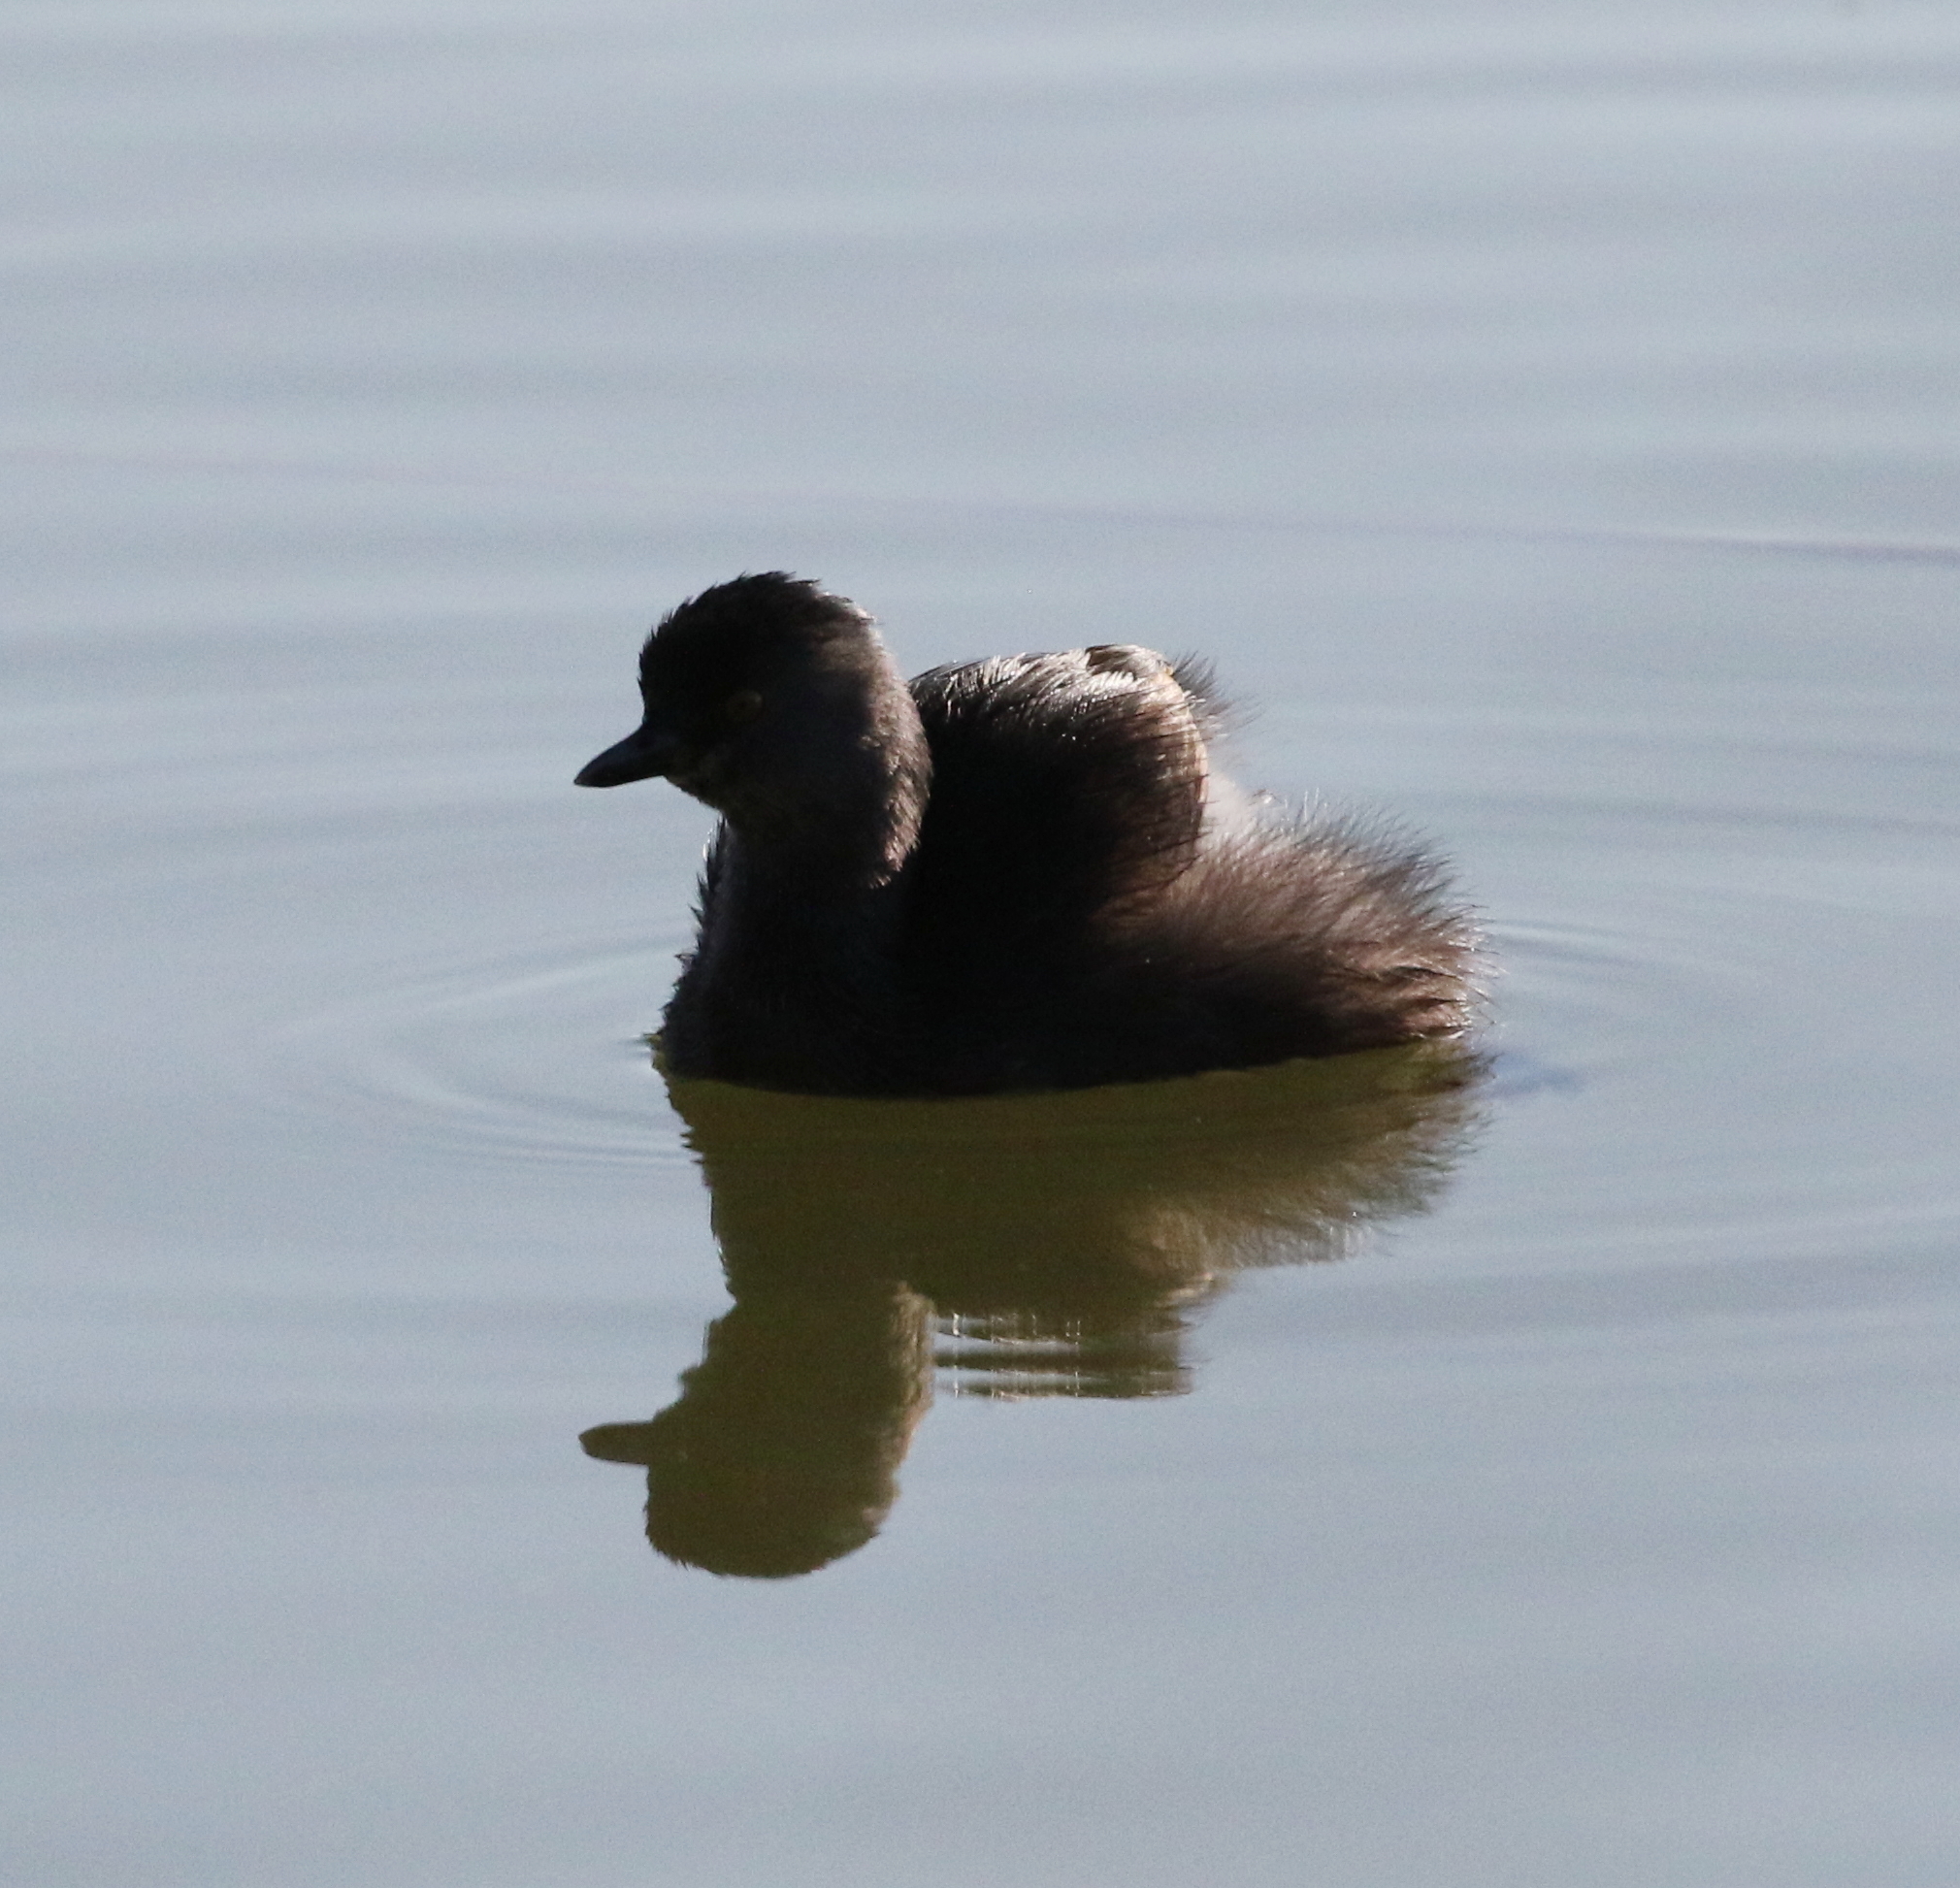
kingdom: Animalia
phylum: Chordata
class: Aves
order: Podicipediformes
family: Podicipedidae
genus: Tachybaptus
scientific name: Tachybaptus dominicus
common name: Least grebe
